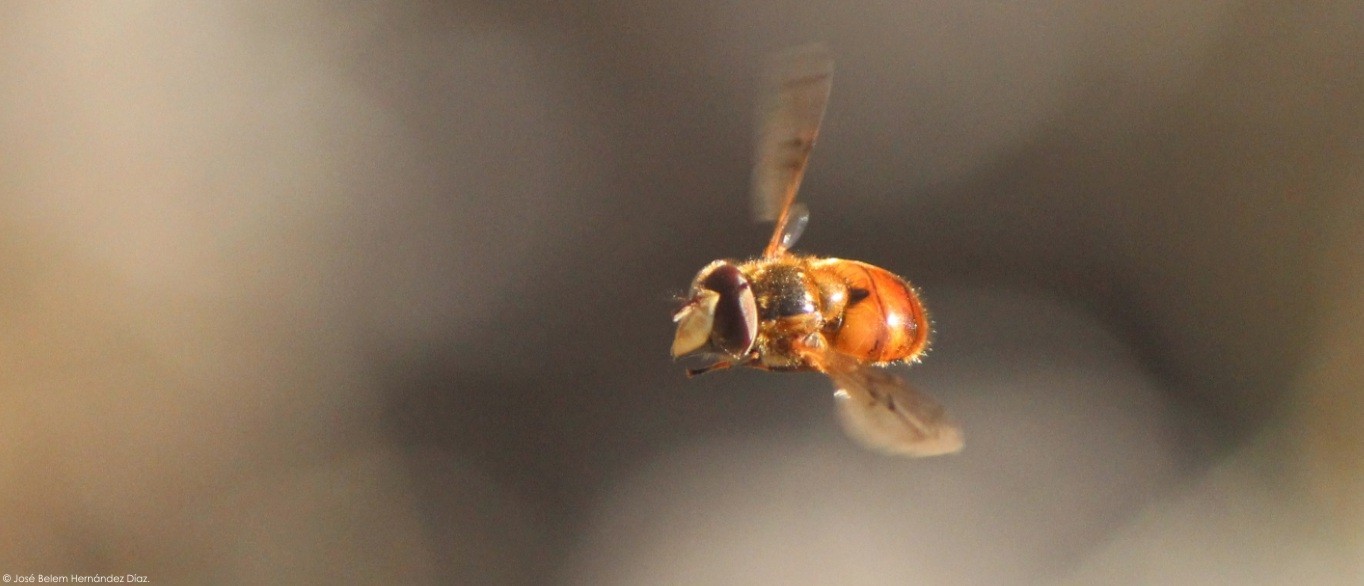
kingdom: Animalia
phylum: Arthropoda
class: Insecta
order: Diptera
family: Syrphidae
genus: Copestylum
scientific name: Copestylum melleum
